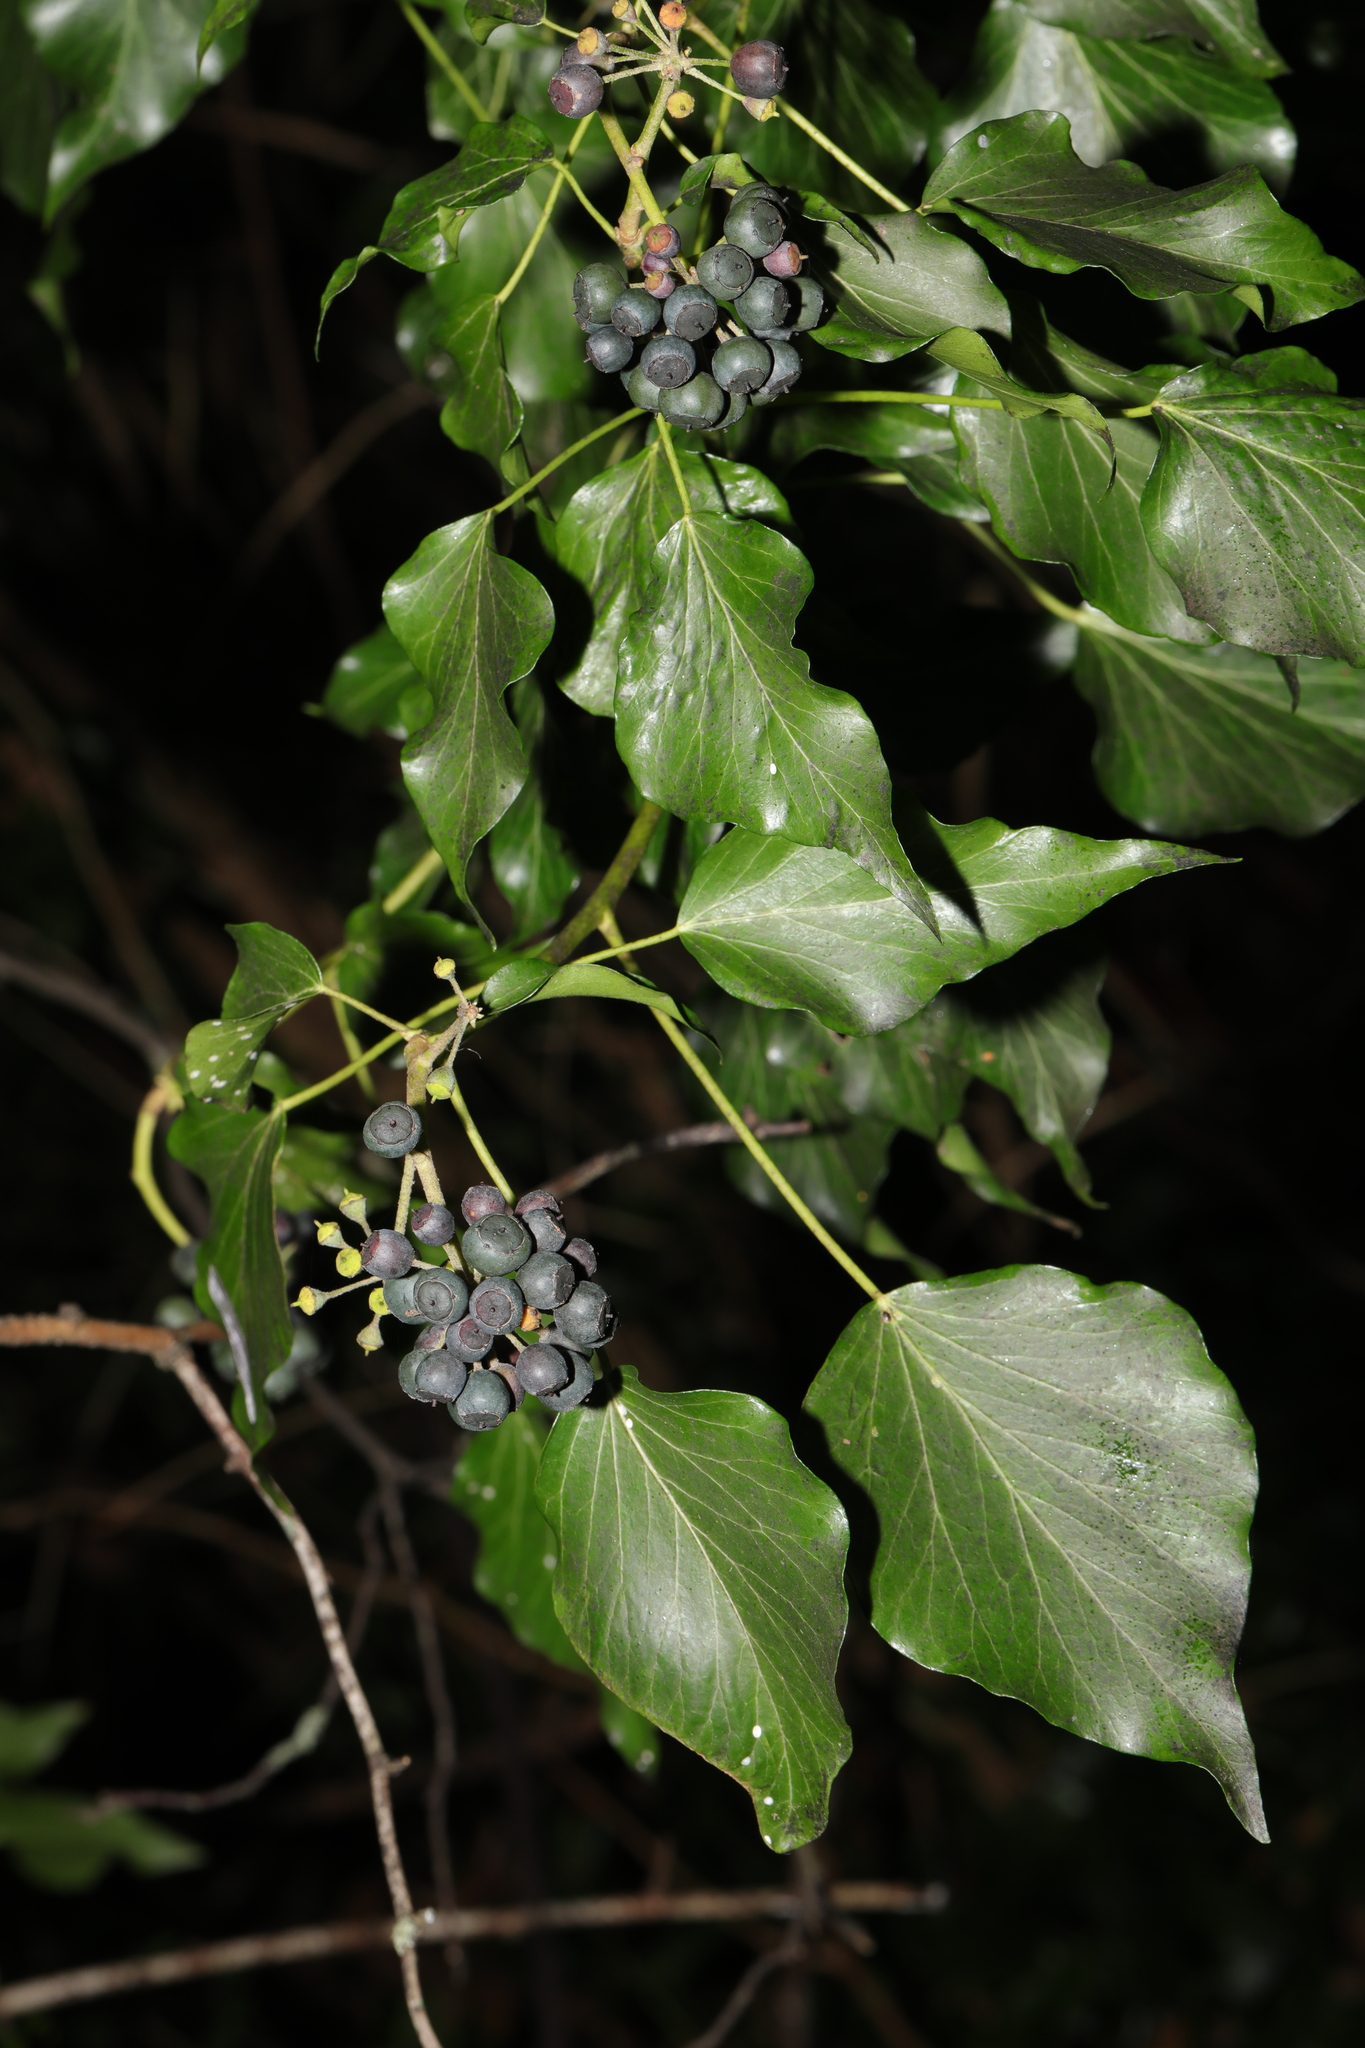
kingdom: Plantae
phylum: Tracheophyta
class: Magnoliopsida
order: Apiales
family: Araliaceae
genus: Hedera
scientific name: Hedera helix
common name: Ivy
